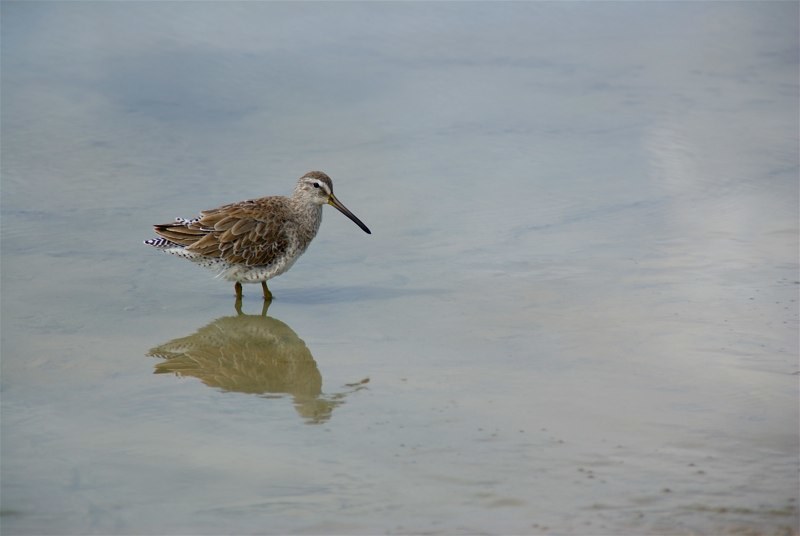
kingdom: Animalia
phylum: Chordata
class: Aves
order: Charadriiformes
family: Scolopacidae
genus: Limnodromus
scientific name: Limnodromus griseus
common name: Short-billed dowitcher
